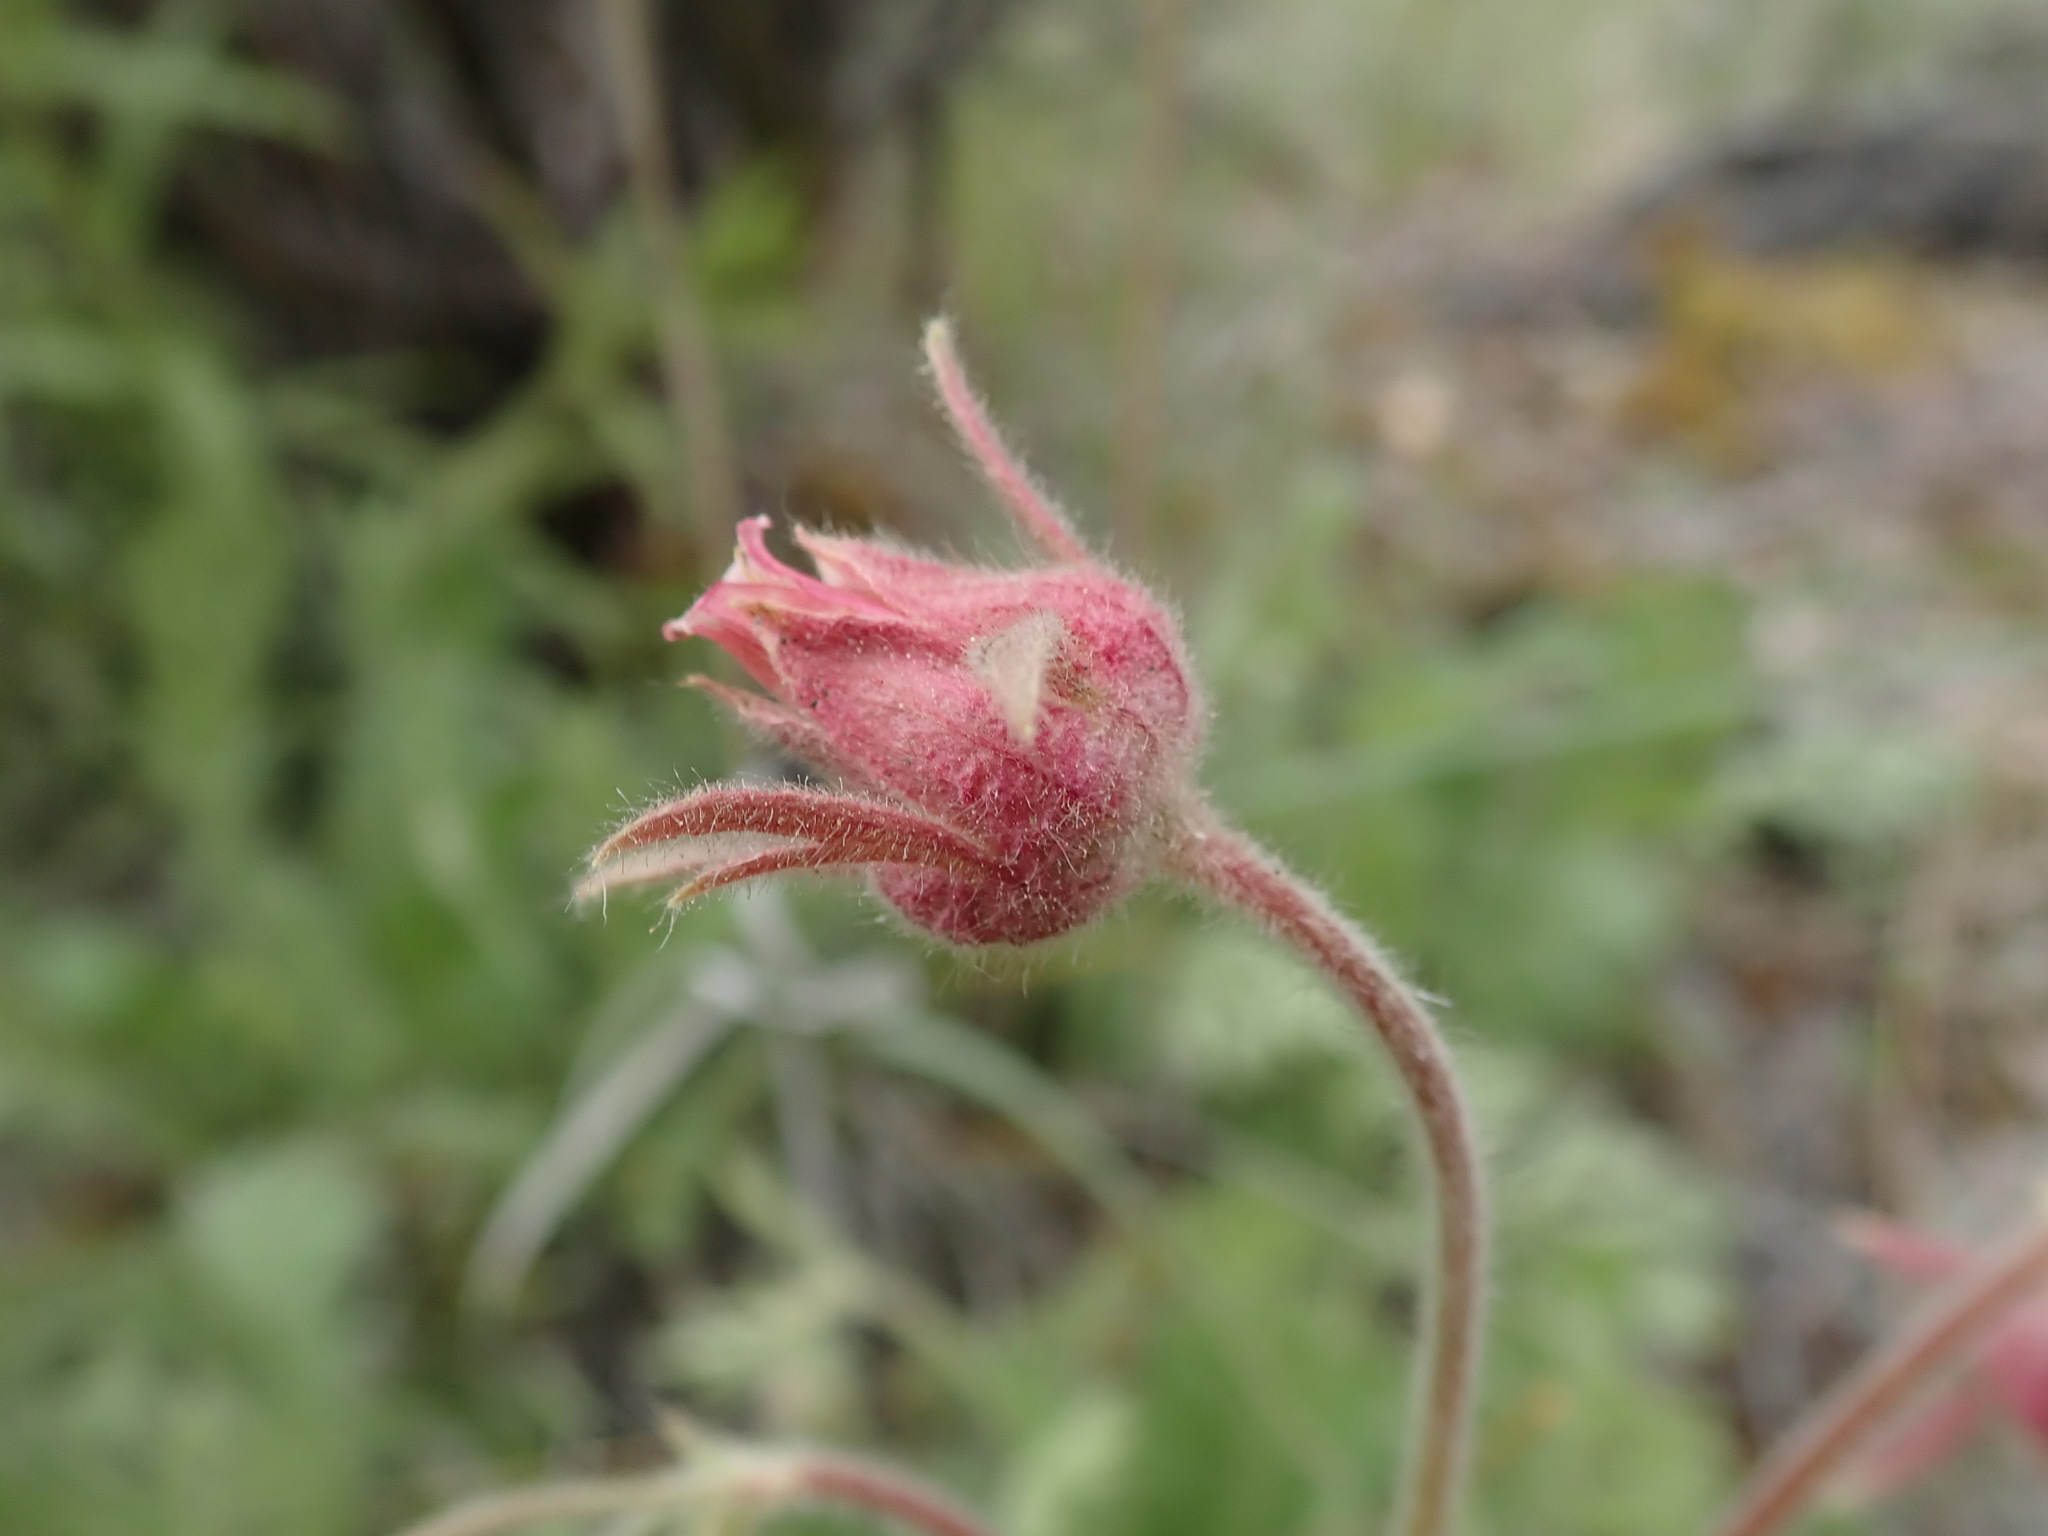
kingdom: Plantae
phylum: Tracheophyta
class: Magnoliopsida
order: Rosales
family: Rosaceae
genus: Geum
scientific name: Geum triflorum
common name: Old man's whiskers
